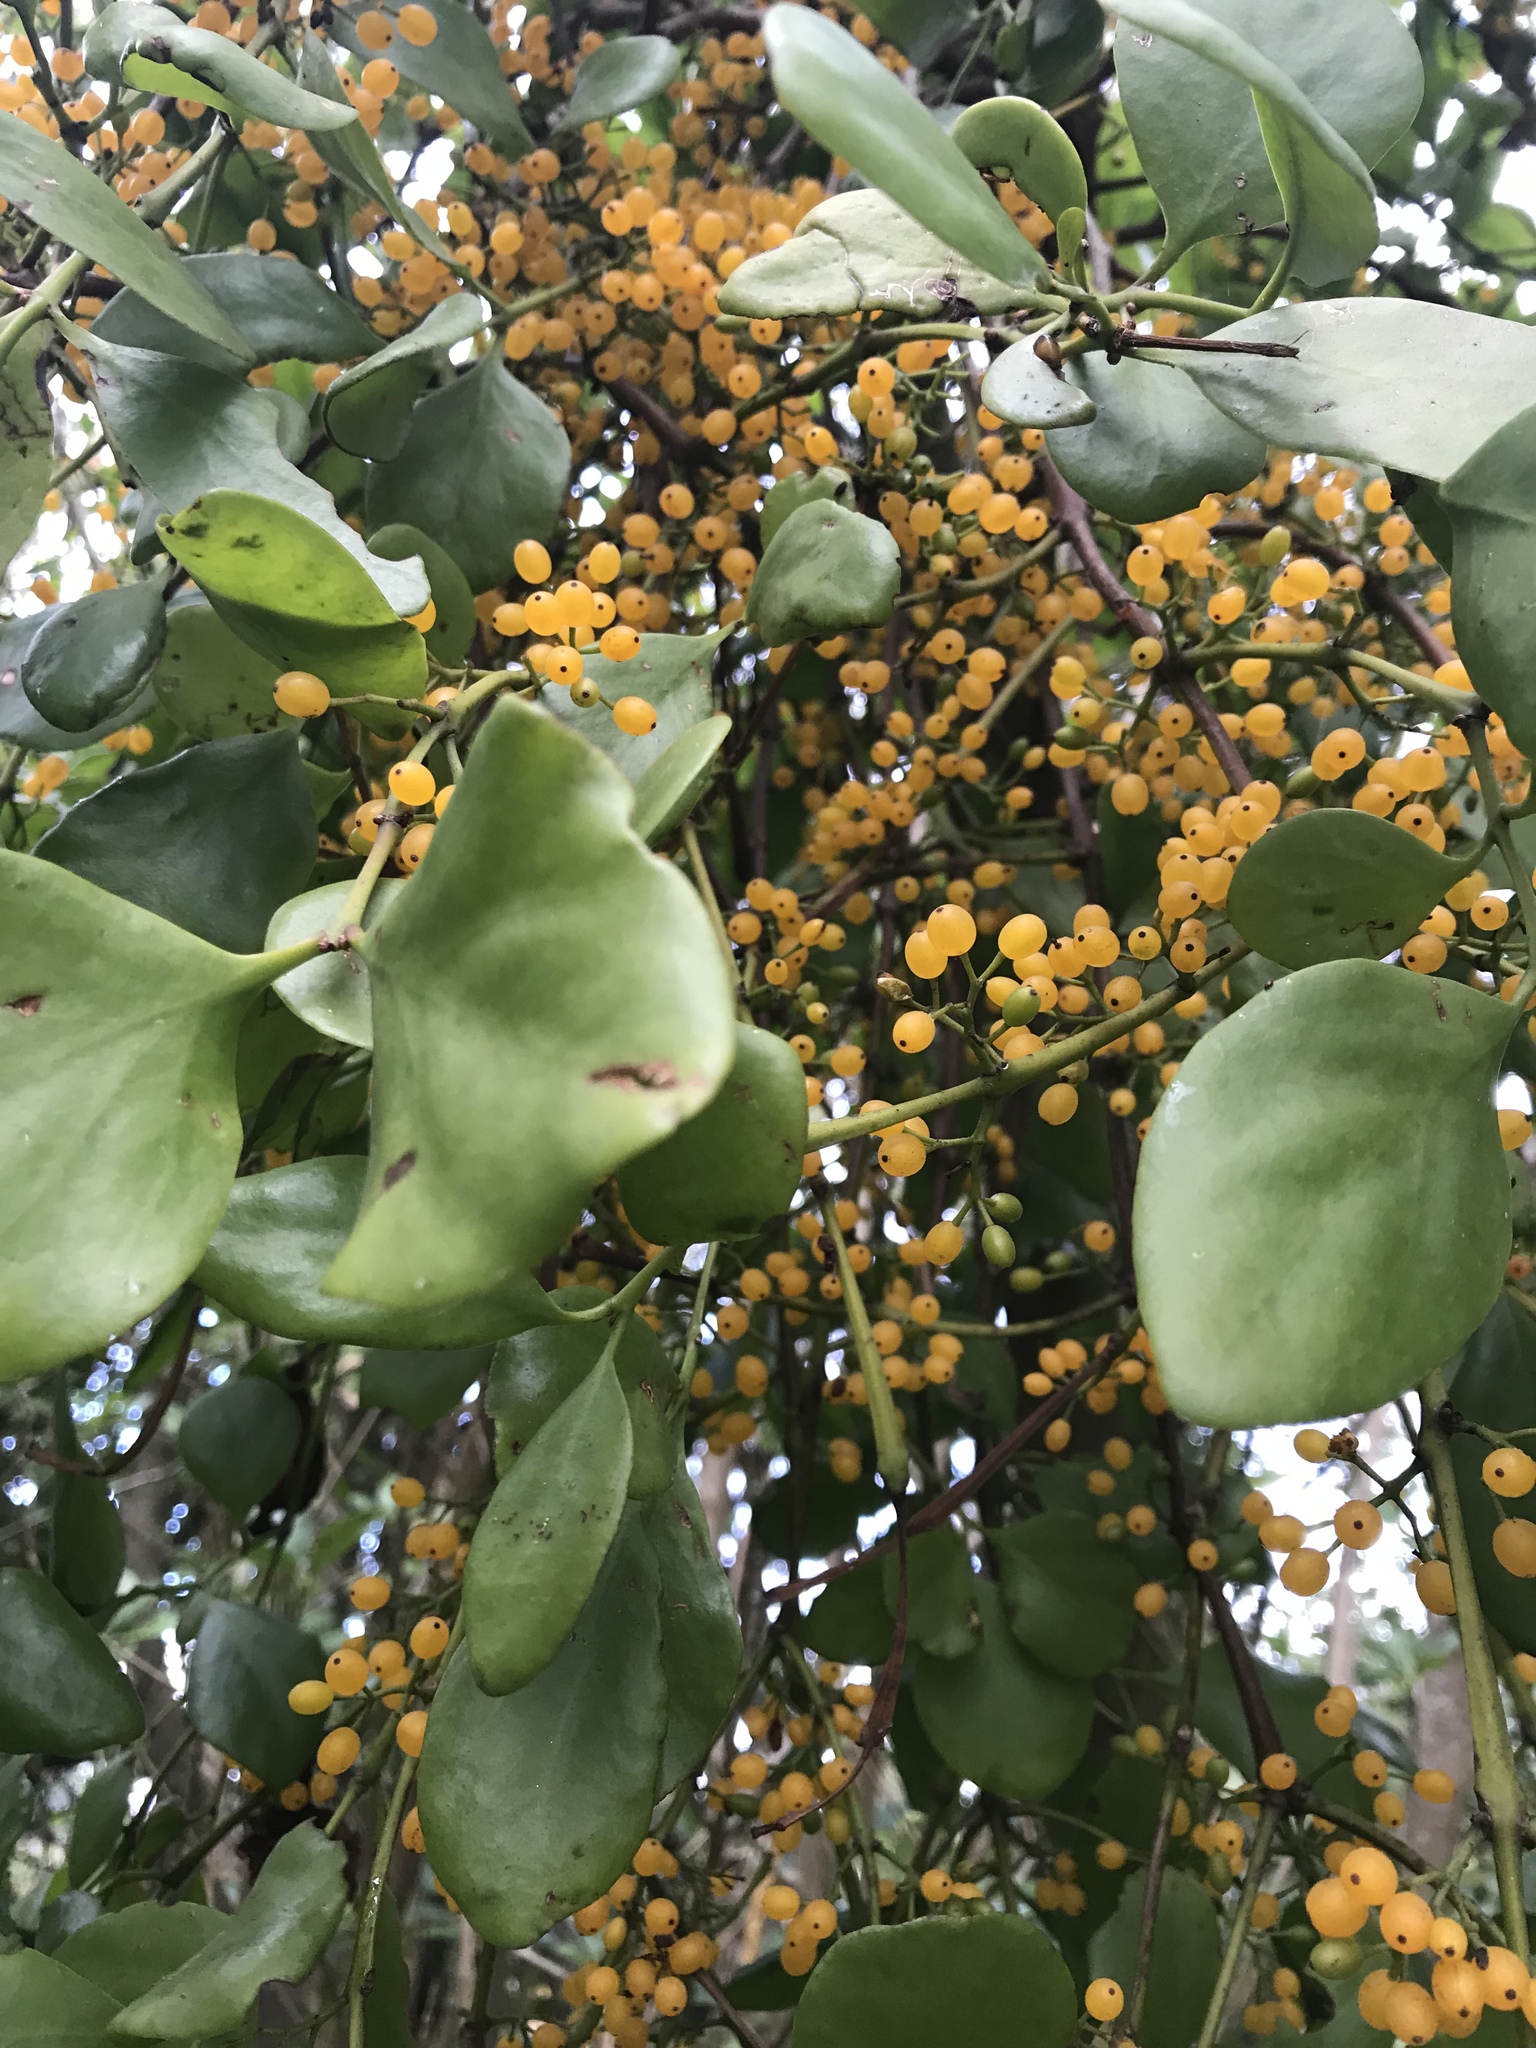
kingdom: Plantae
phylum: Tracheophyta
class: Magnoliopsida
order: Santalales
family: Loranthaceae
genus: Ileostylus
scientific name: Ileostylus micranthus
